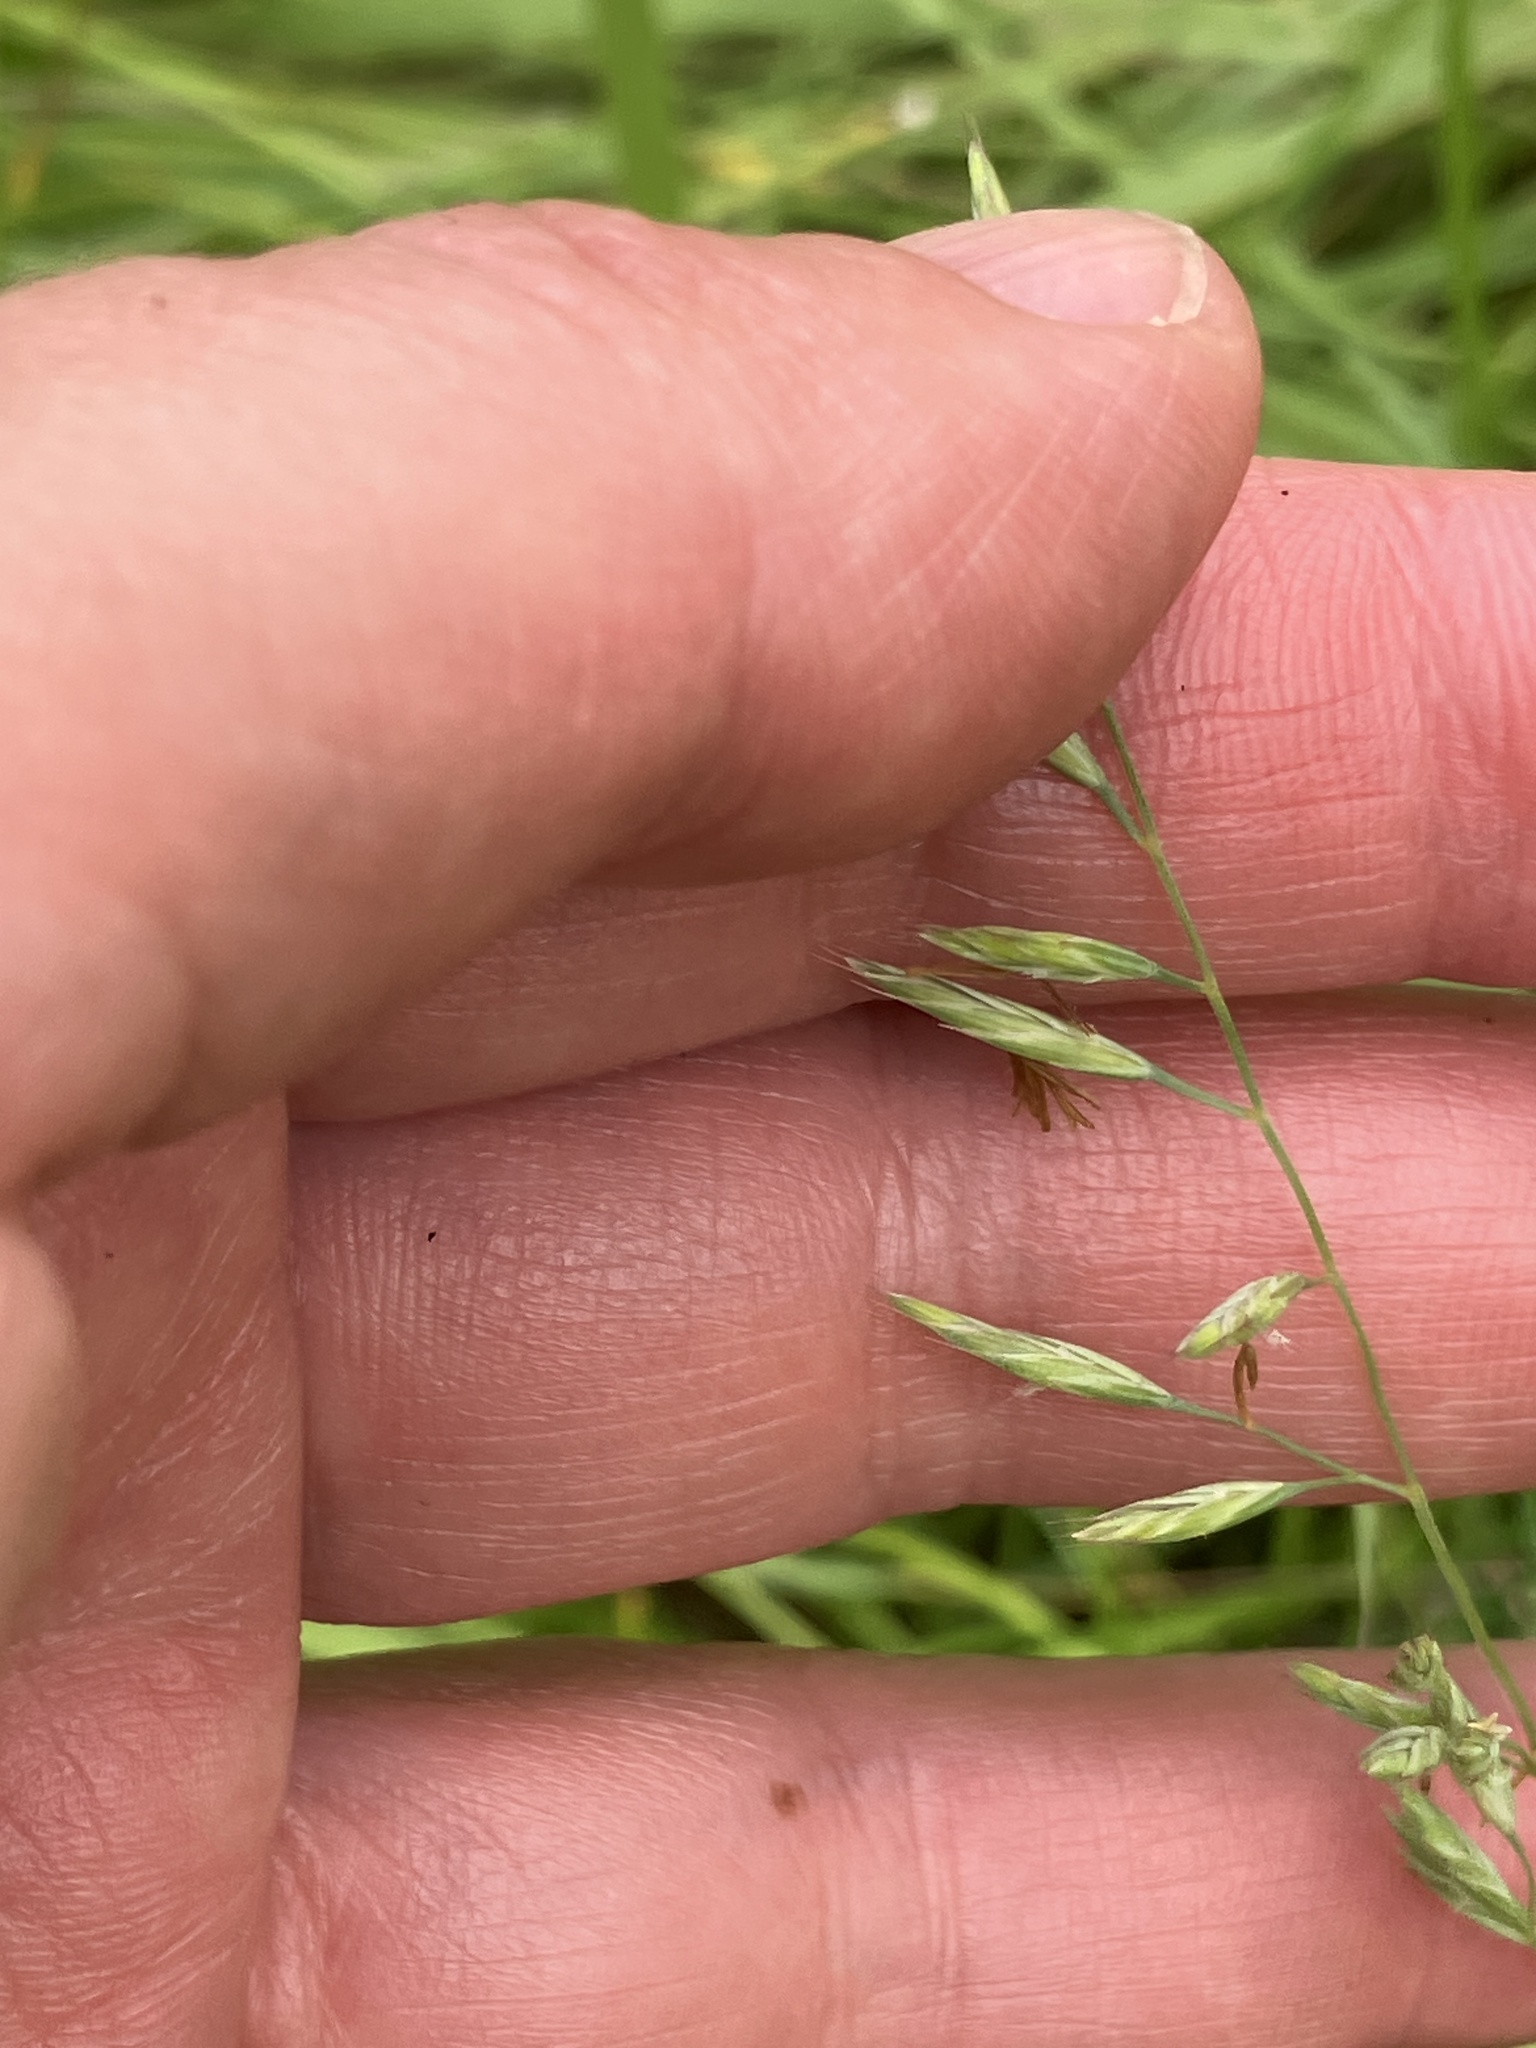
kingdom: Plantae
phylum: Tracheophyta
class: Liliopsida
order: Poales
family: Poaceae
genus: Festuca
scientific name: Festuca rubra
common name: Red fescue
